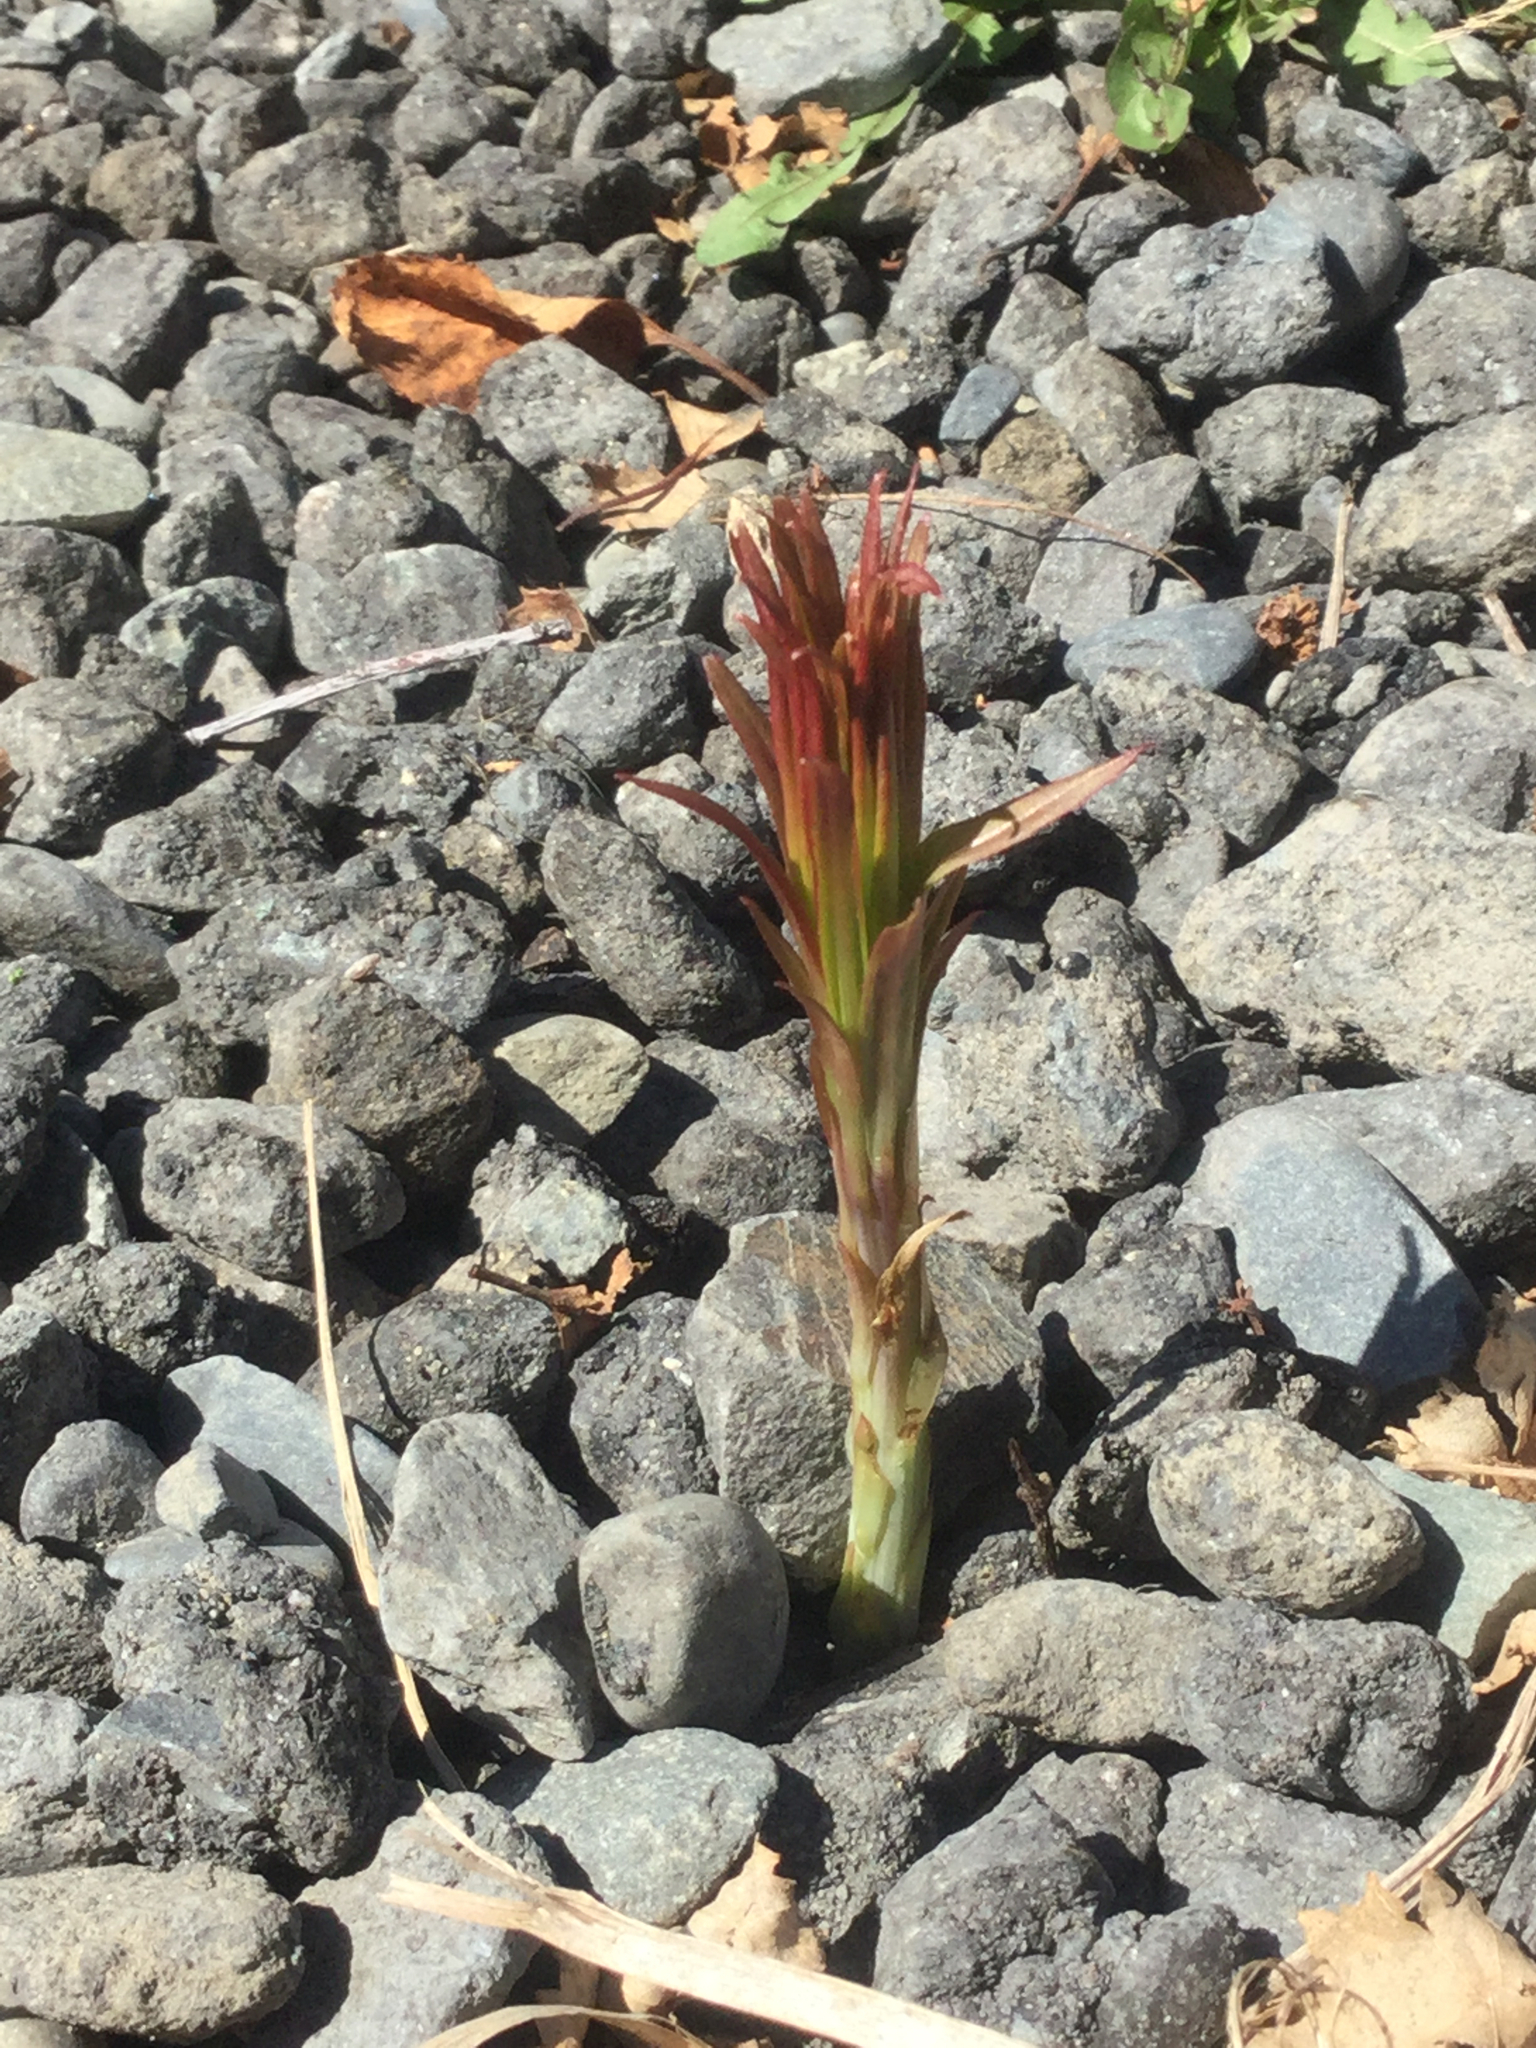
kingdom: Plantae
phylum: Tracheophyta
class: Magnoliopsida
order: Myrtales
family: Onagraceae
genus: Chamaenerion
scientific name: Chamaenerion angustifolium
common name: Fireweed
